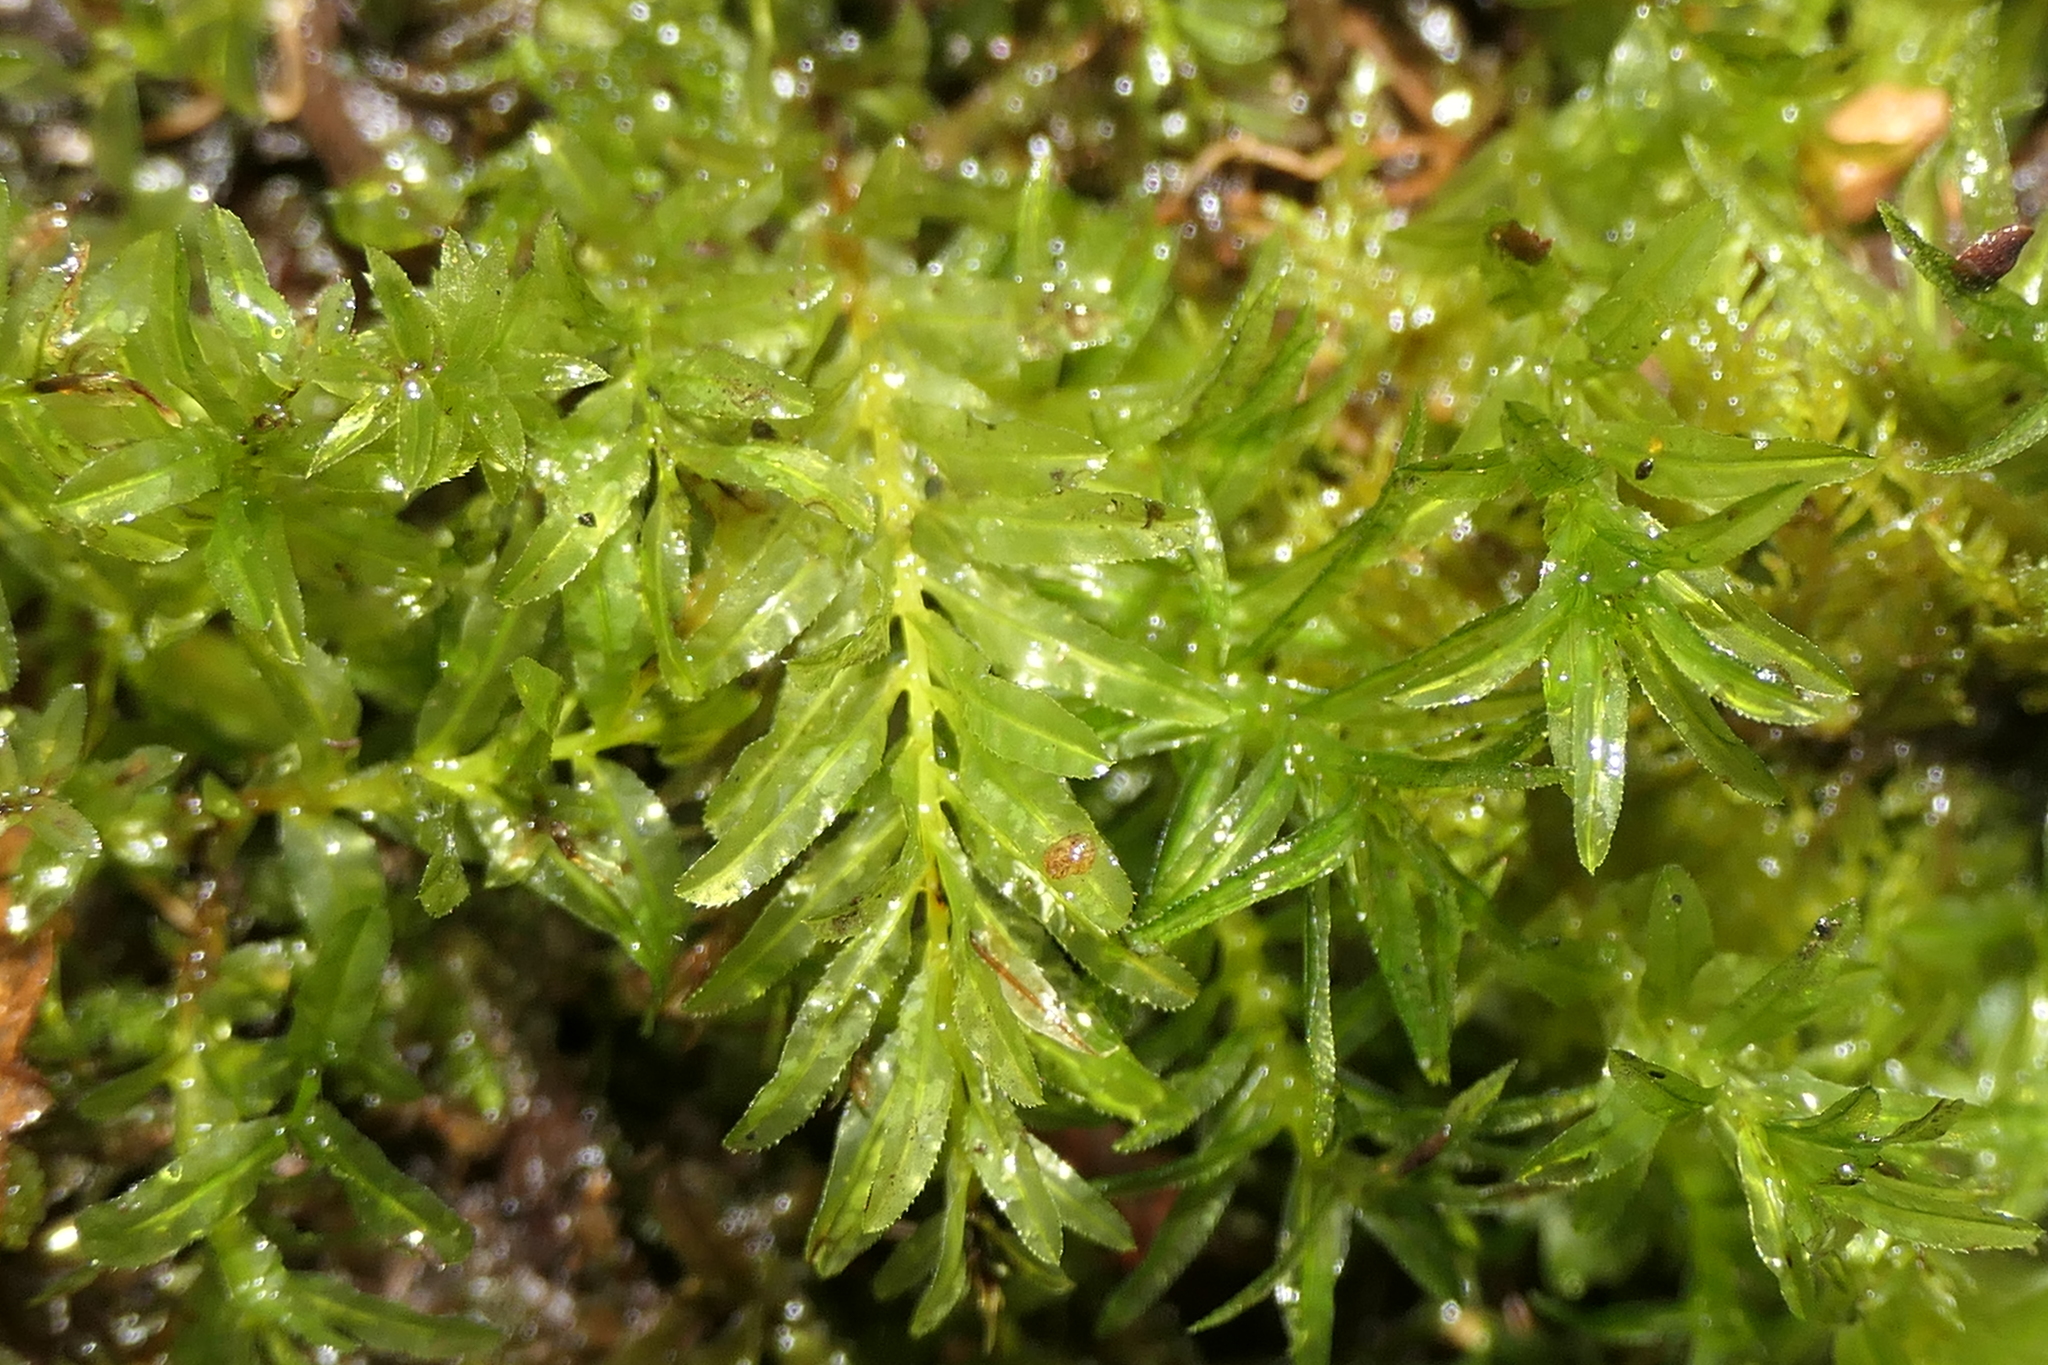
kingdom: Plantae
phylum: Bryophyta
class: Bryopsida
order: Bryales
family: Mniaceae
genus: Plagiomnium
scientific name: Plagiomnium undulatum
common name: Hart's-tongue thyme-moss
